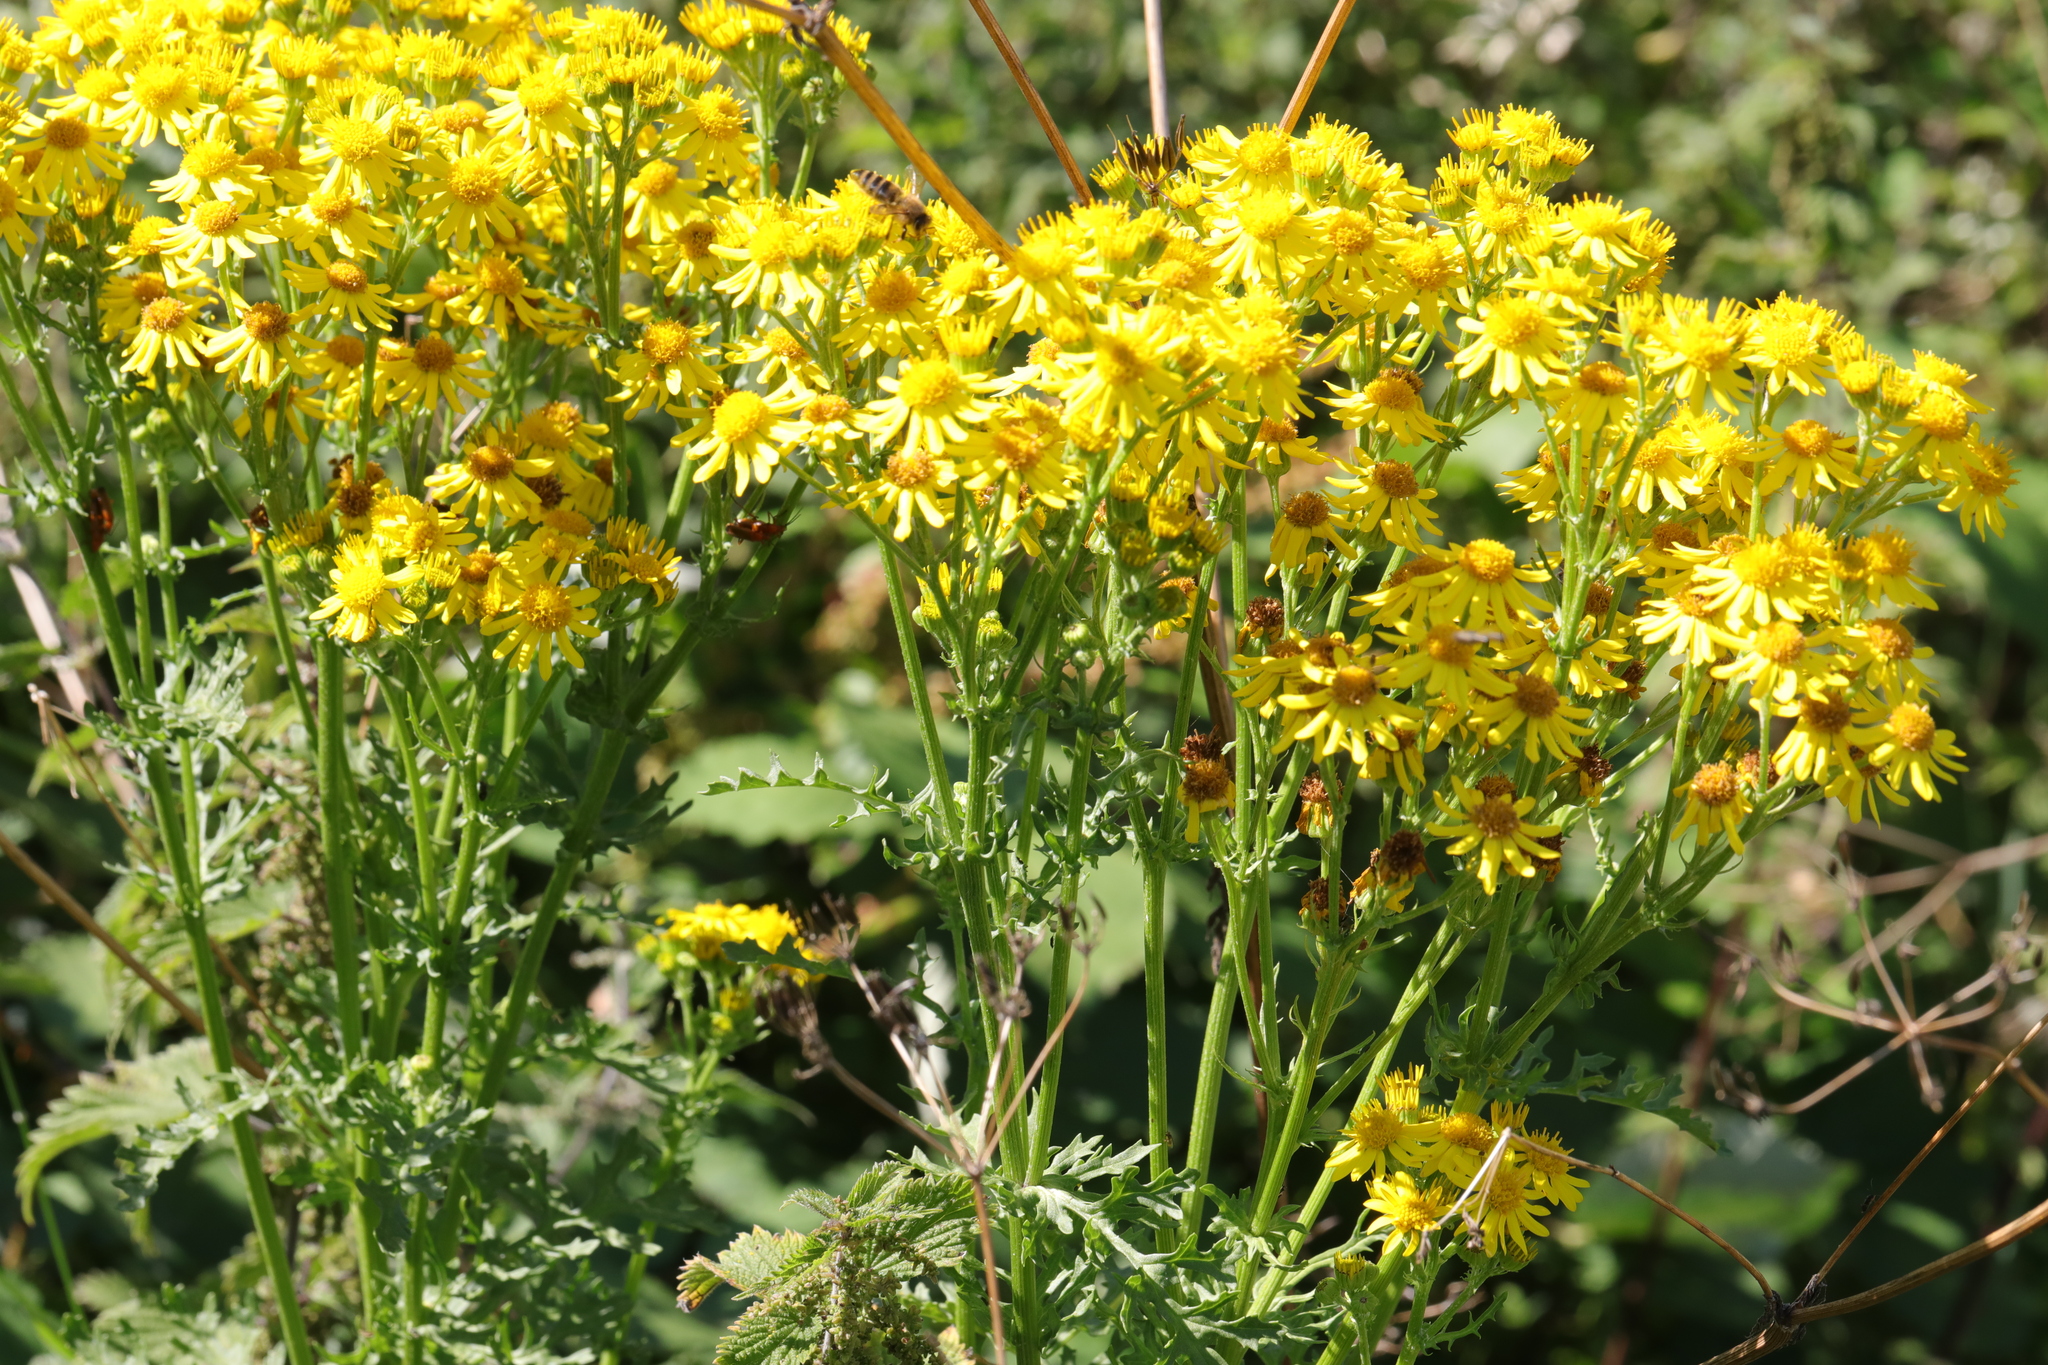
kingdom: Plantae
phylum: Tracheophyta
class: Magnoliopsida
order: Asterales
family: Asteraceae
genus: Jacobaea
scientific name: Jacobaea vulgaris
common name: Stinking willie
